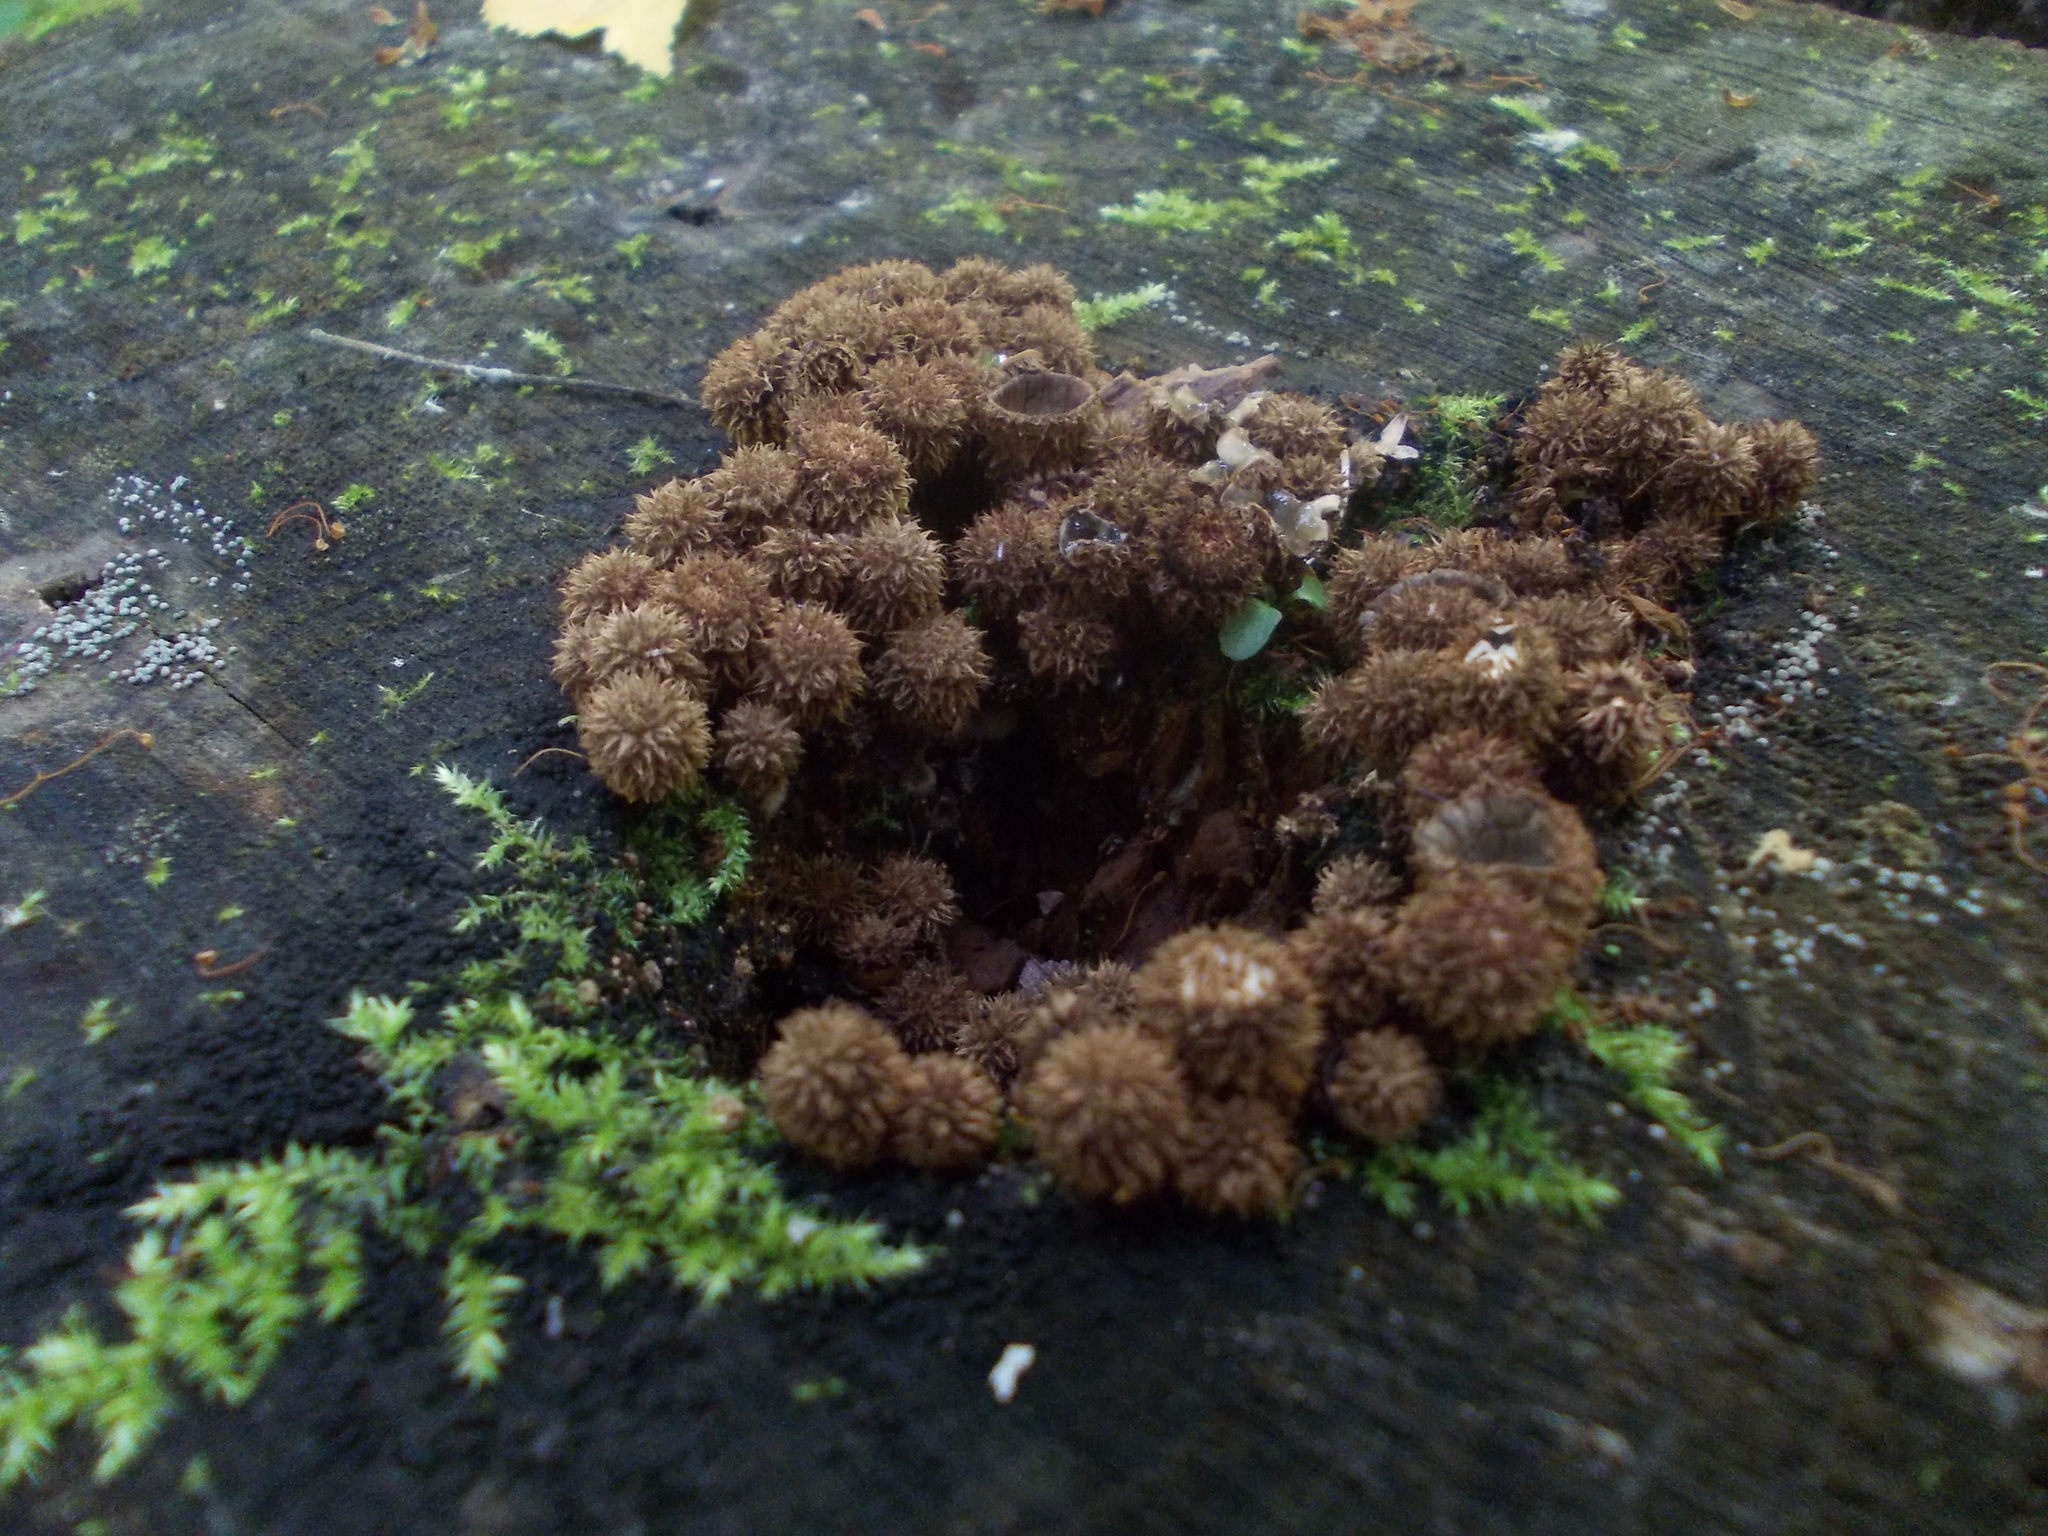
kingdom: Fungi
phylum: Basidiomycota
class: Agaricomycetes
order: Agaricales
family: Agaricaceae
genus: Cyathus
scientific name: Cyathus striatus
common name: Fluted bird's nest
